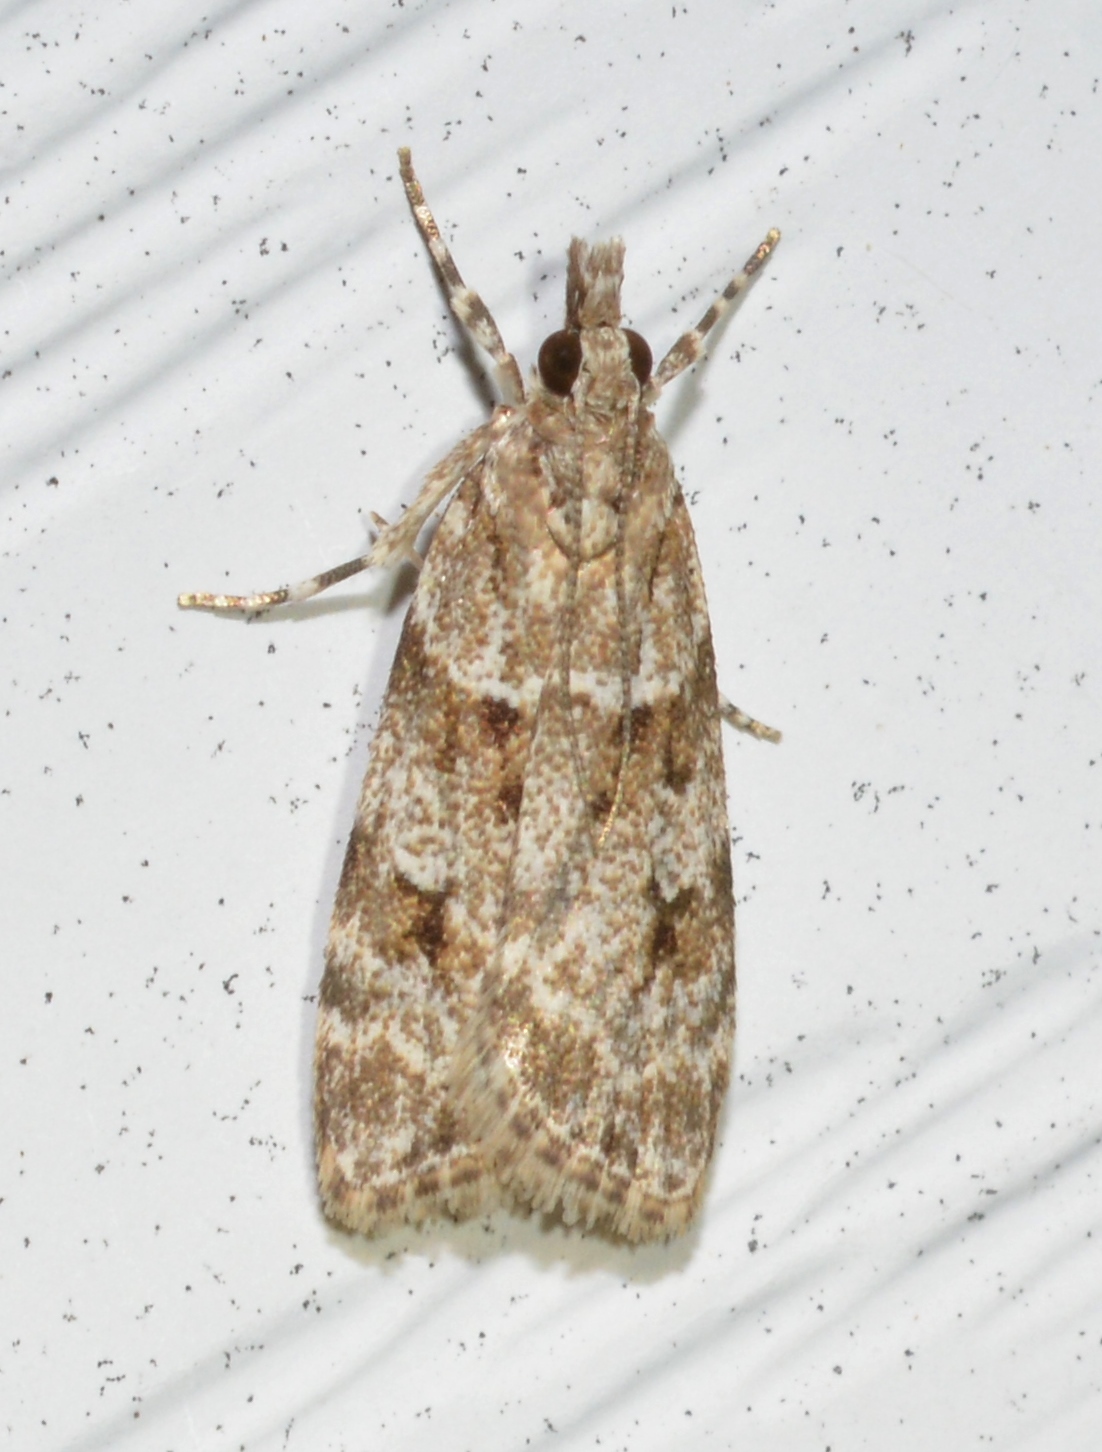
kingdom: Animalia
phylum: Arthropoda
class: Insecta
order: Lepidoptera
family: Crambidae
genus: Scoparia
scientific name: Scoparia biplagialis
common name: Double-striped scoparia moth
